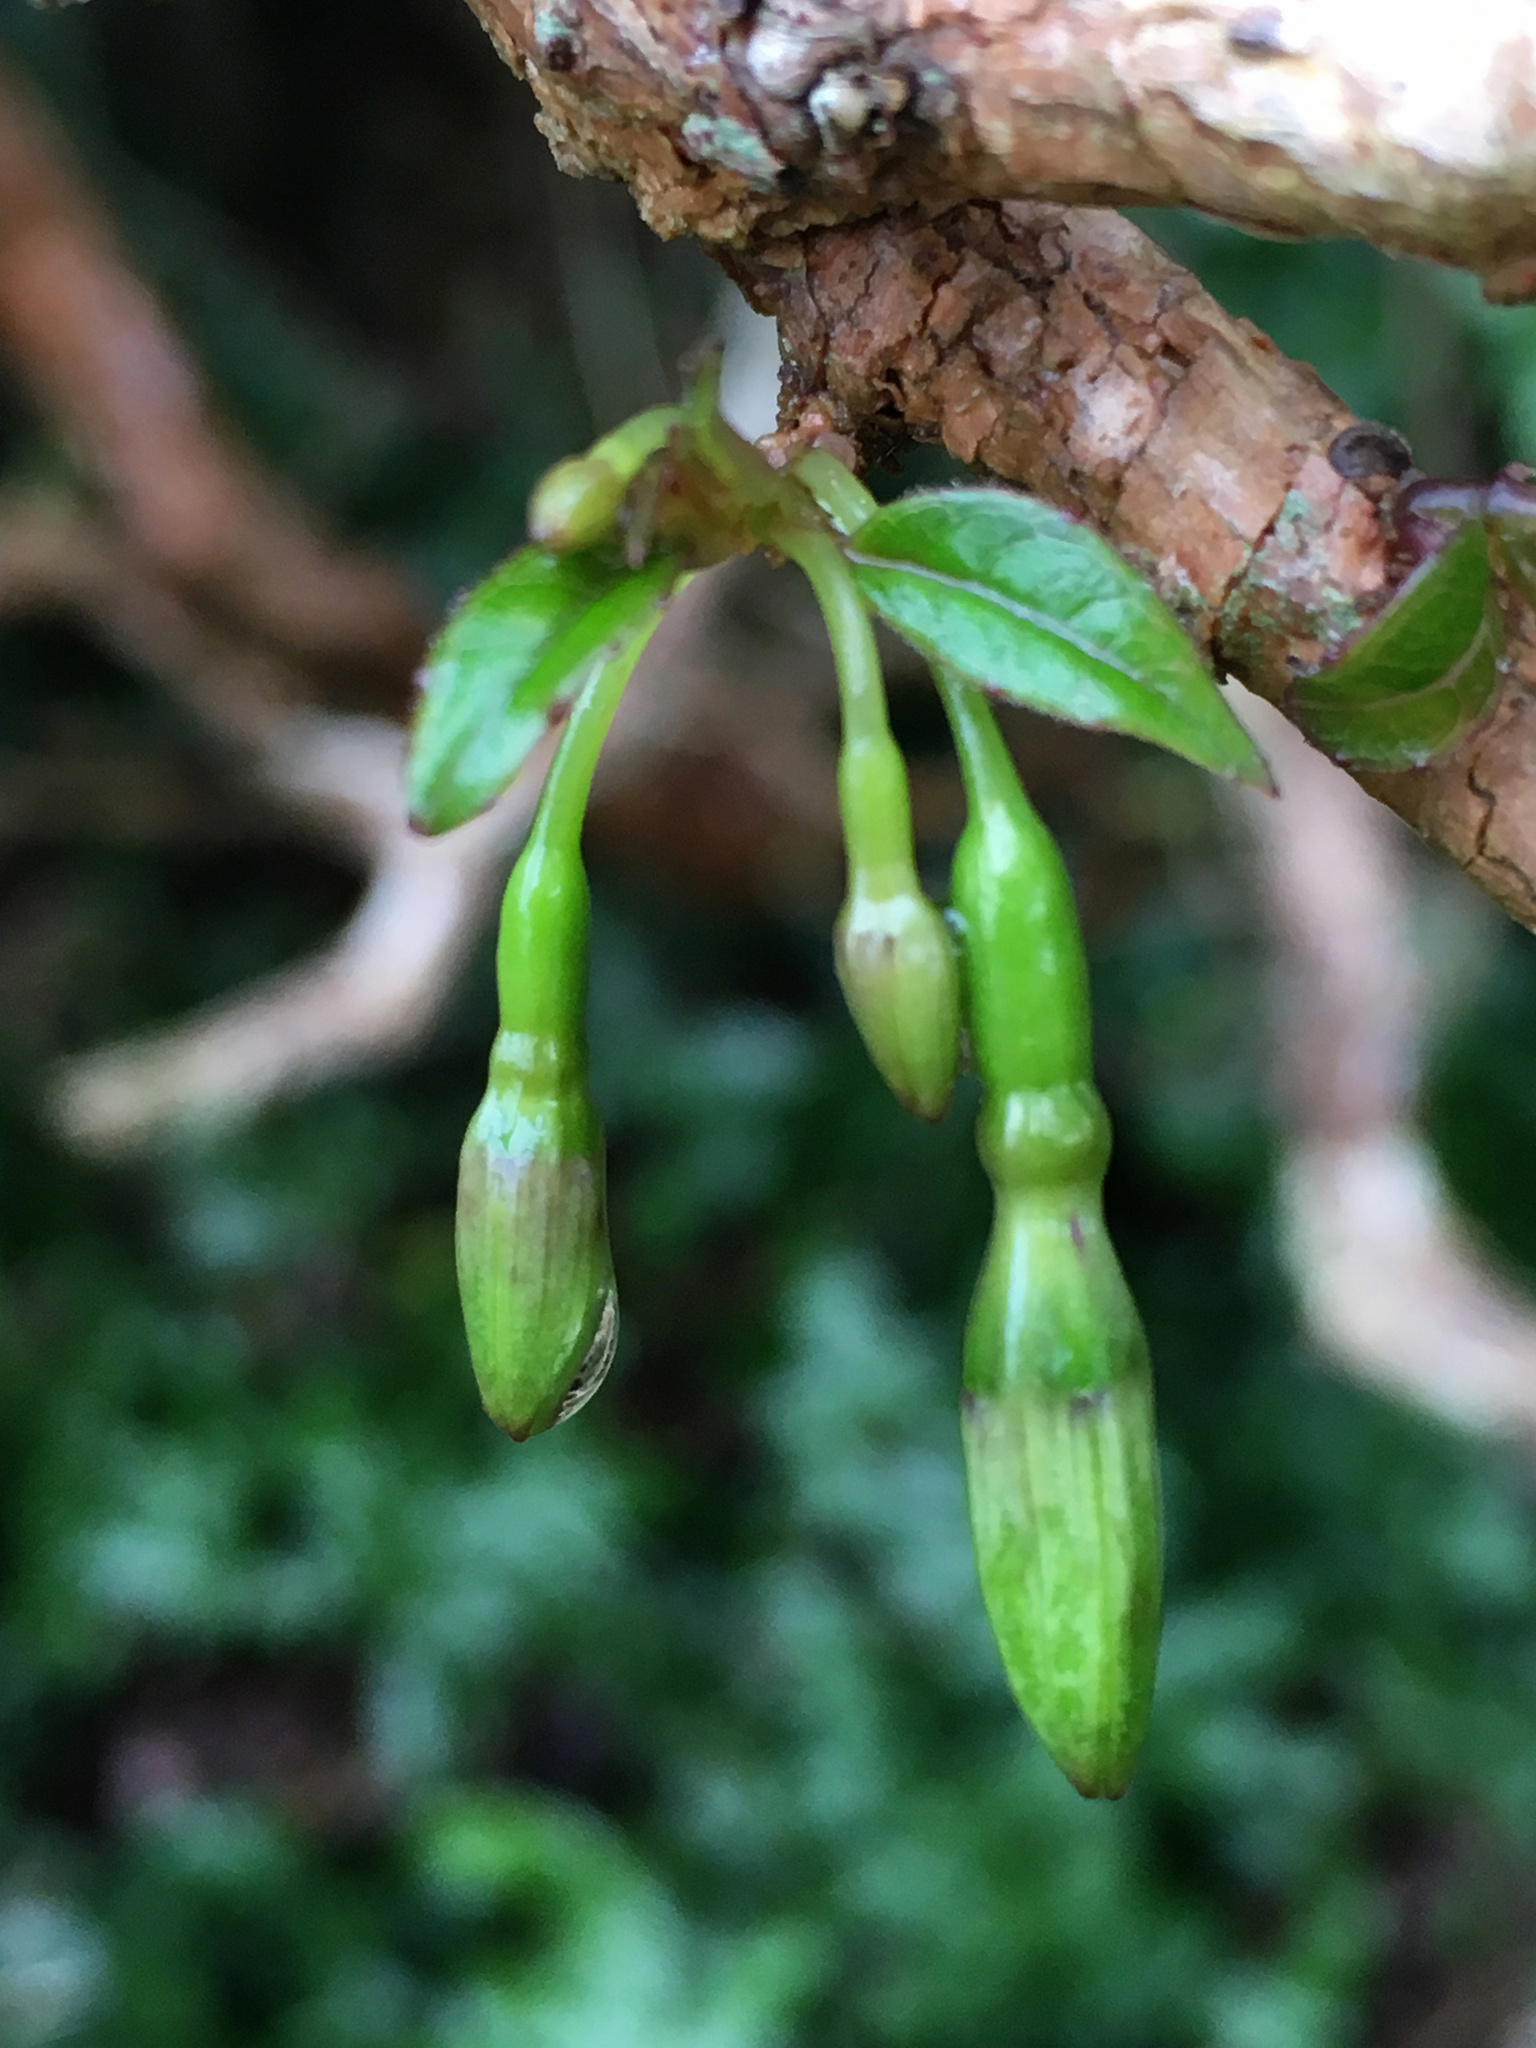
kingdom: Plantae
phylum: Tracheophyta
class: Magnoliopsida
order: Myrtales
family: Onagraceae
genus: Fuchsia
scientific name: Fuchsia excorticata
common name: Tree fuchsia
